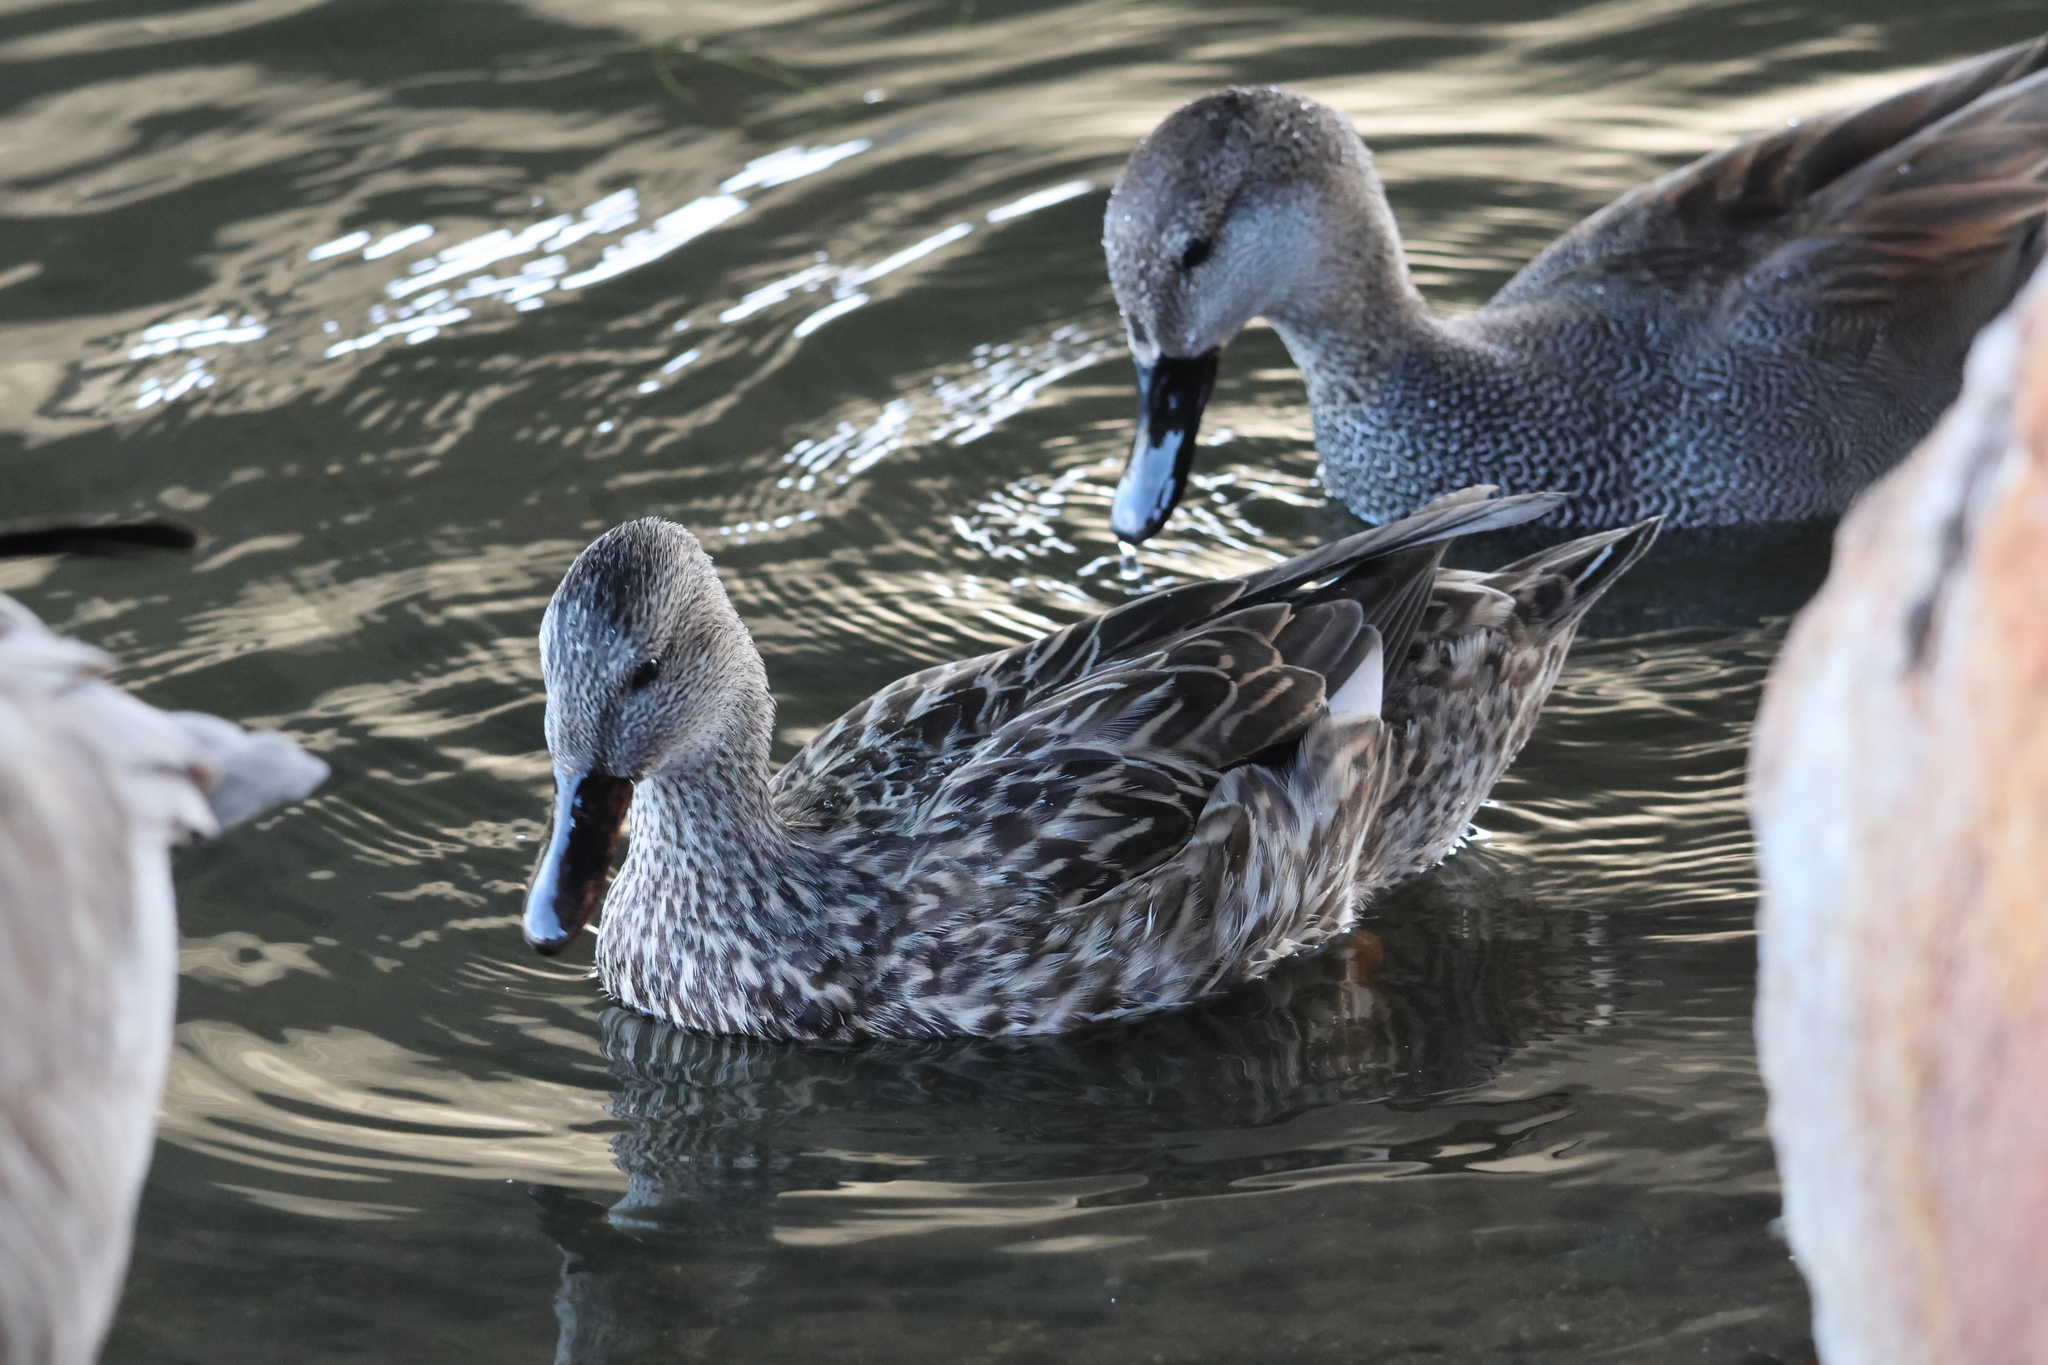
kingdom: Animalia
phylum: Chordata
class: Aves
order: Anseriformes
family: Anatidae
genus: Mareca
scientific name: Mareca strepera
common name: Gadwall
